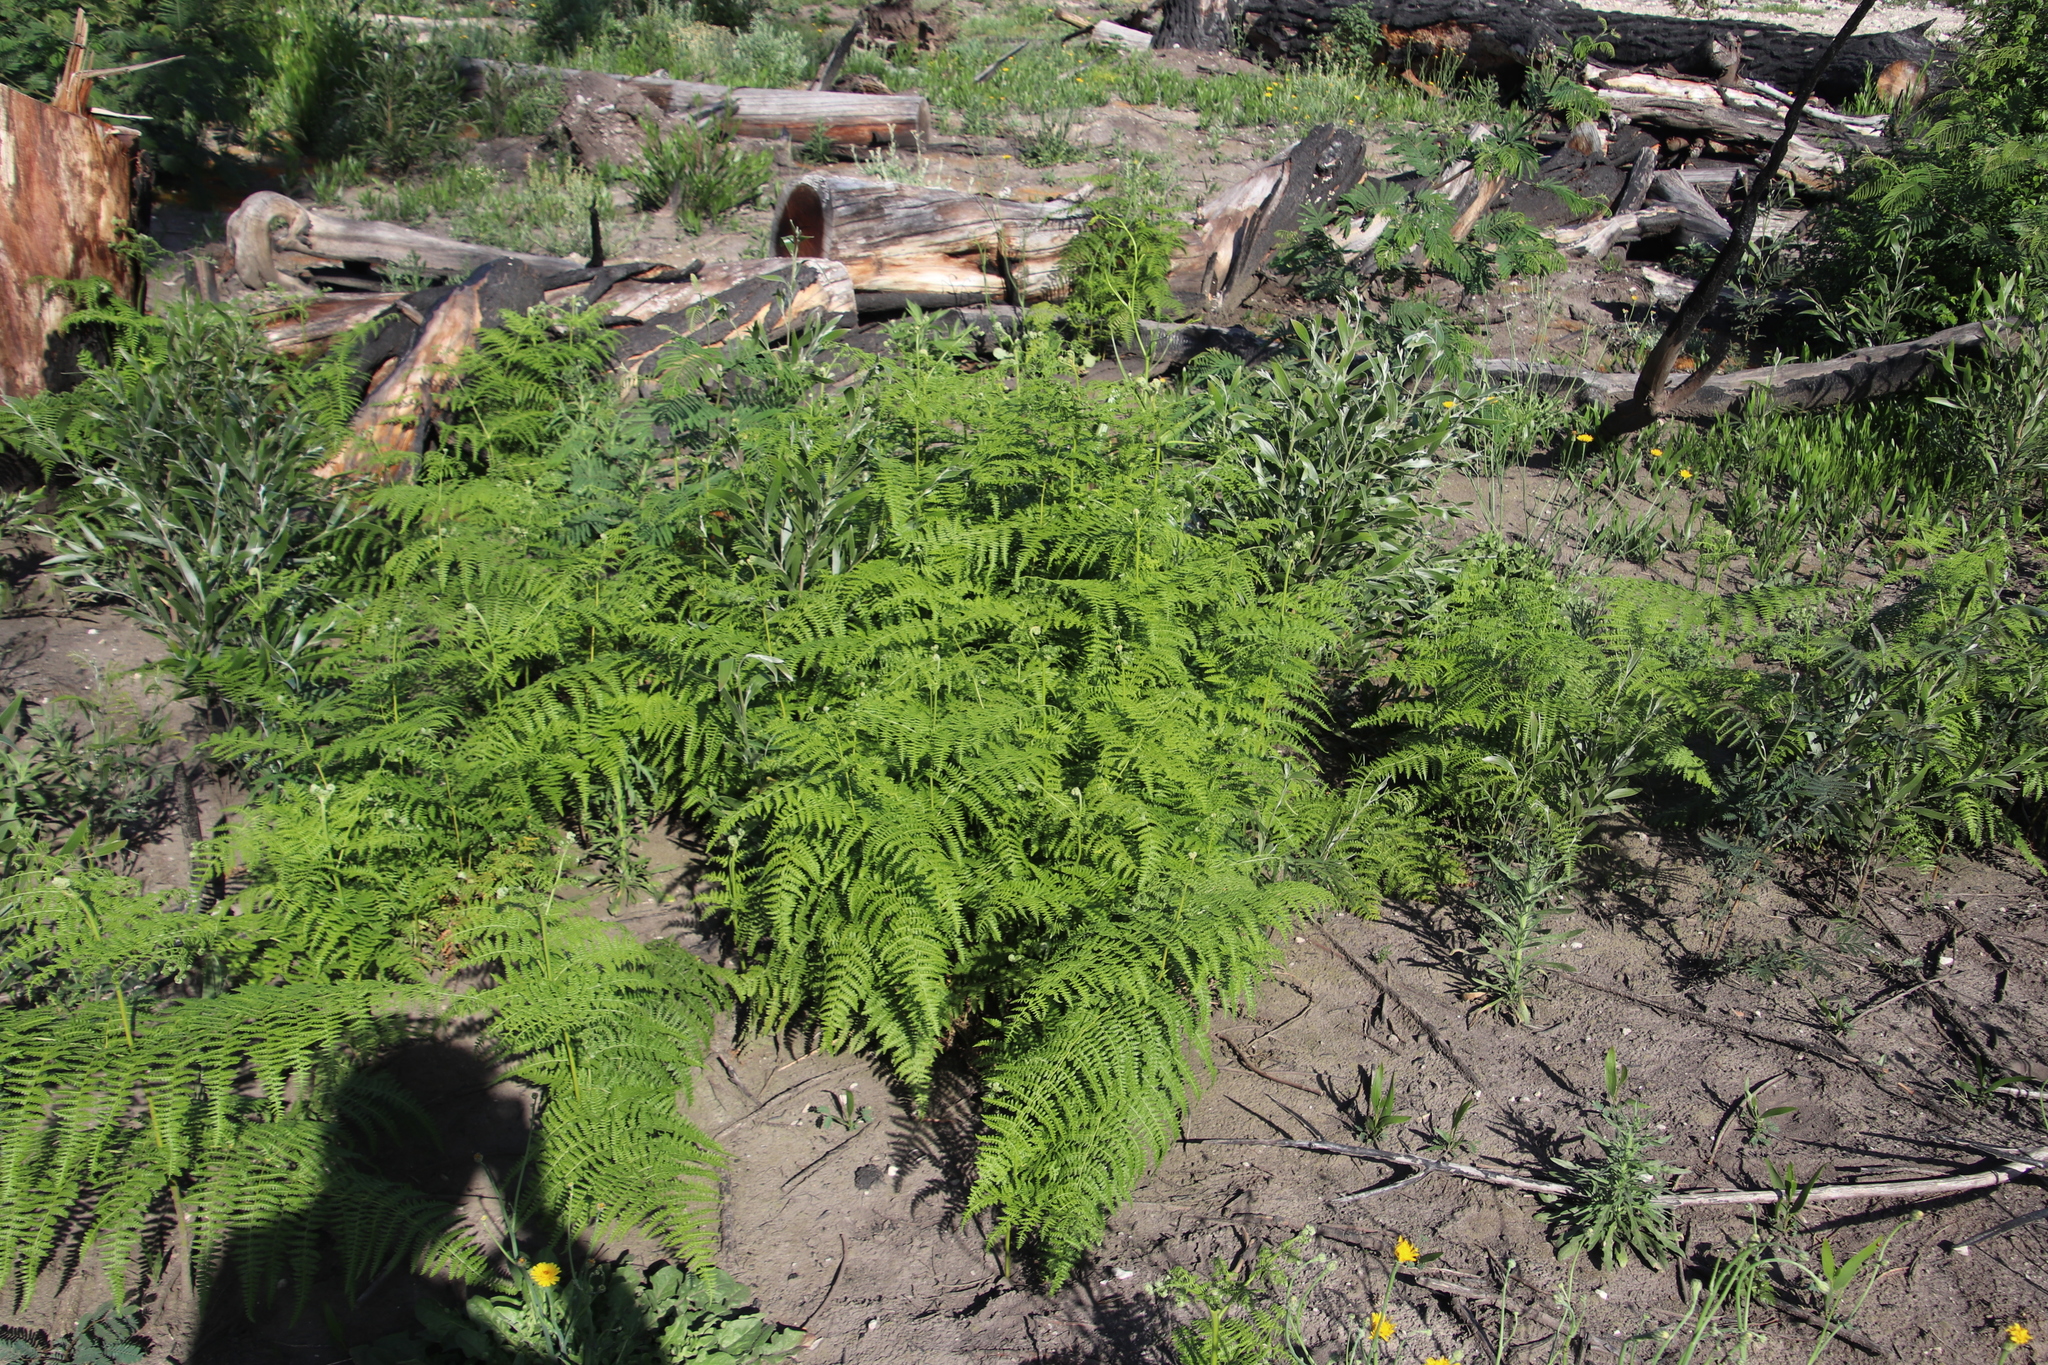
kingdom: Plantae
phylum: Tracheophyta
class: Polypodiopsida
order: Polypodiales
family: Dennstaedtiaceae
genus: Pteridium
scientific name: Pteridium aquilinum
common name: Bracken
